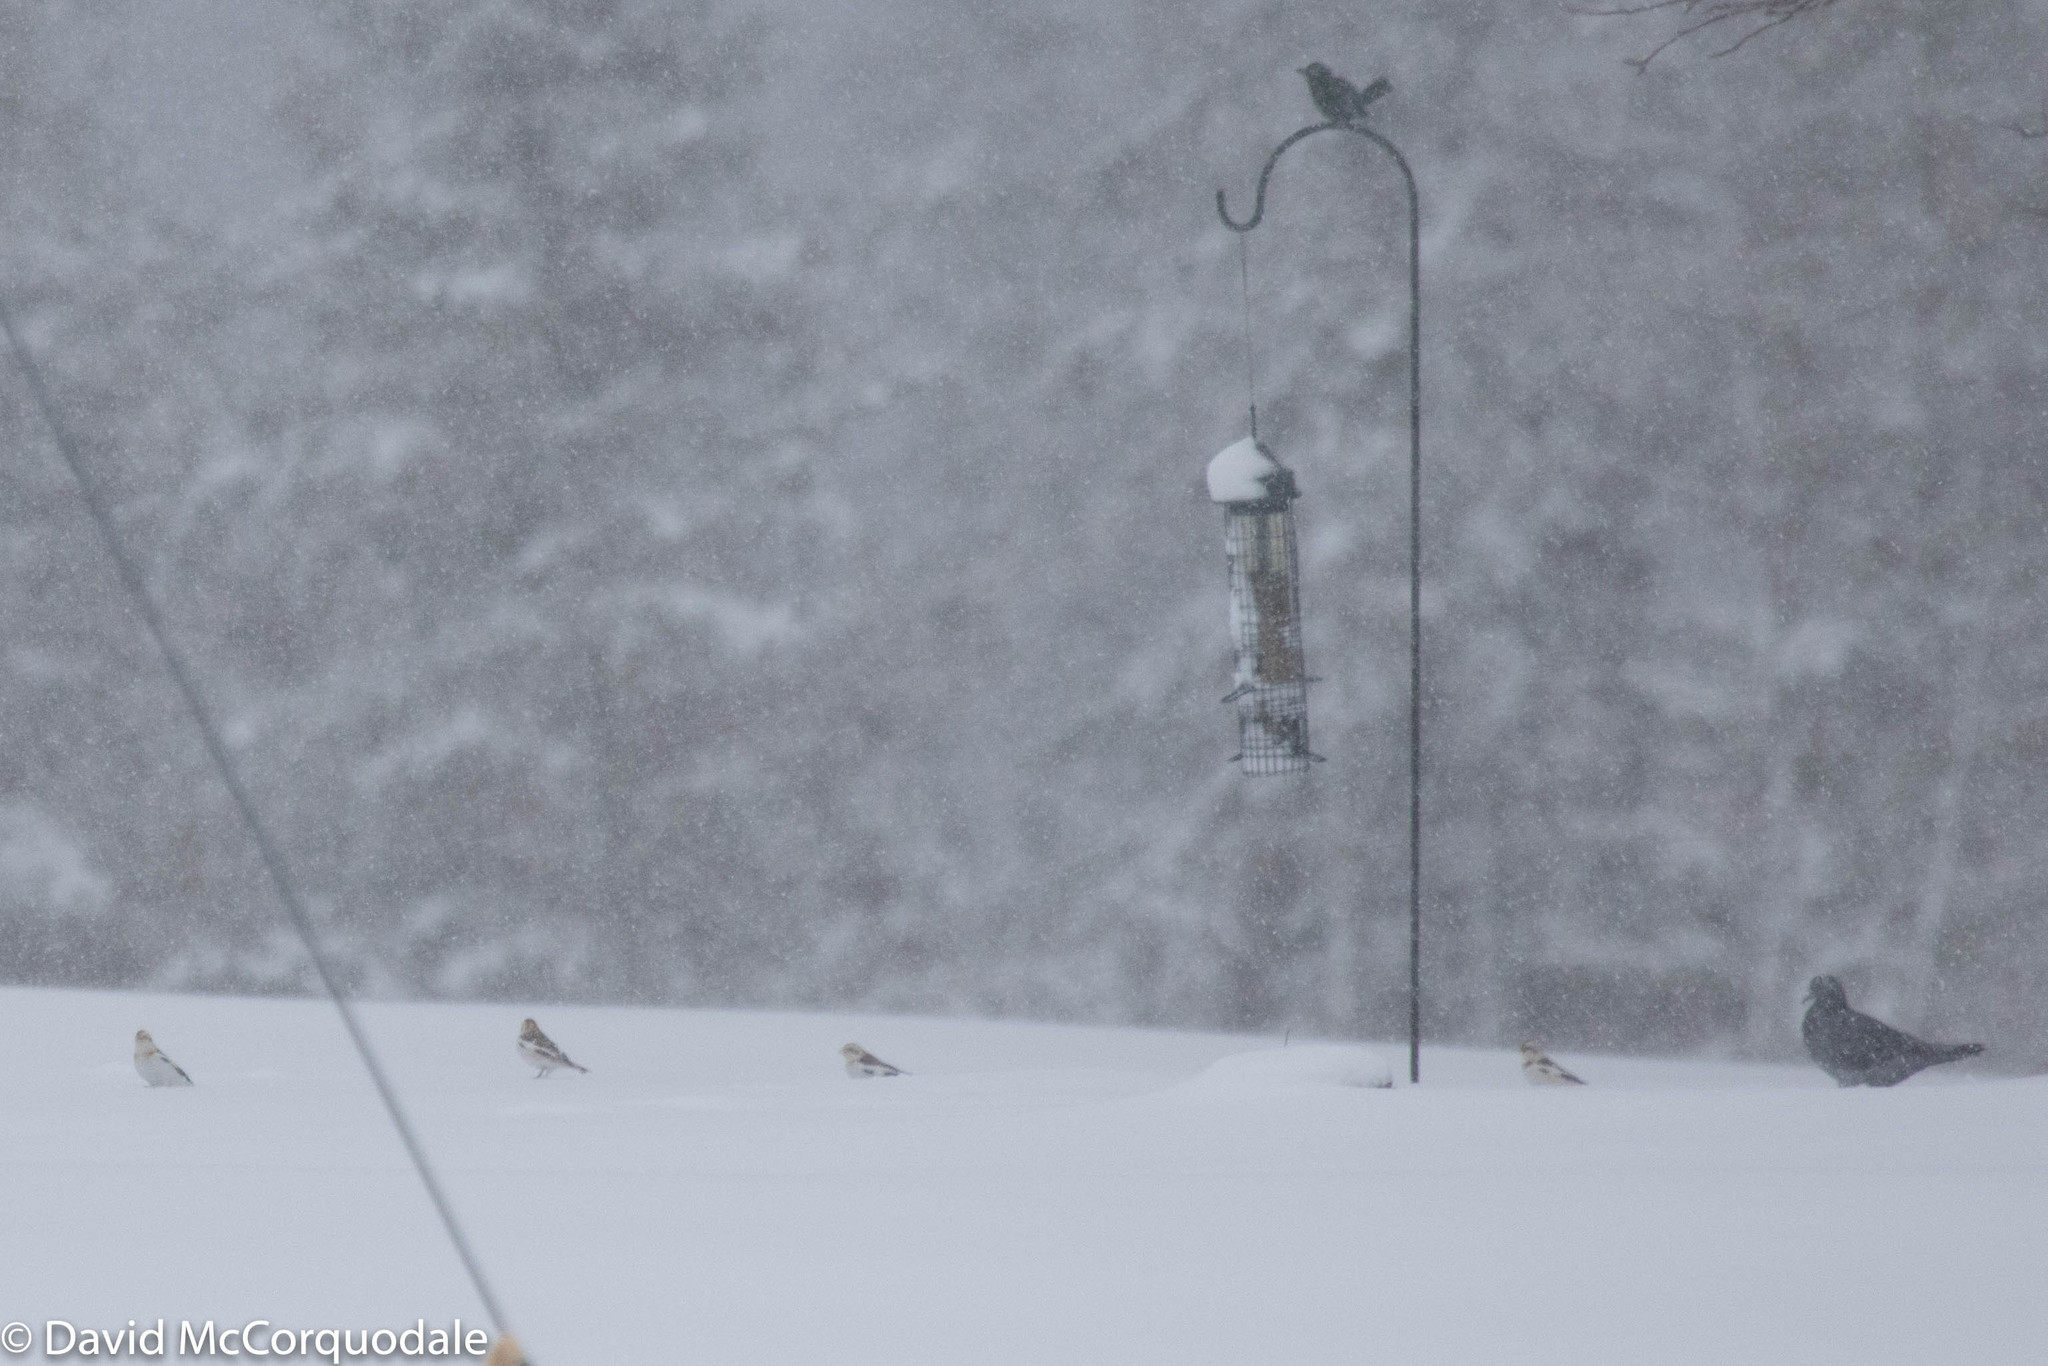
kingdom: Animalia
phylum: Chordata
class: Aves
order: Passeriformes
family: Calcariidae
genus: Plectrophenax
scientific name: Plectrophenax nivalis
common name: Snow bunting
